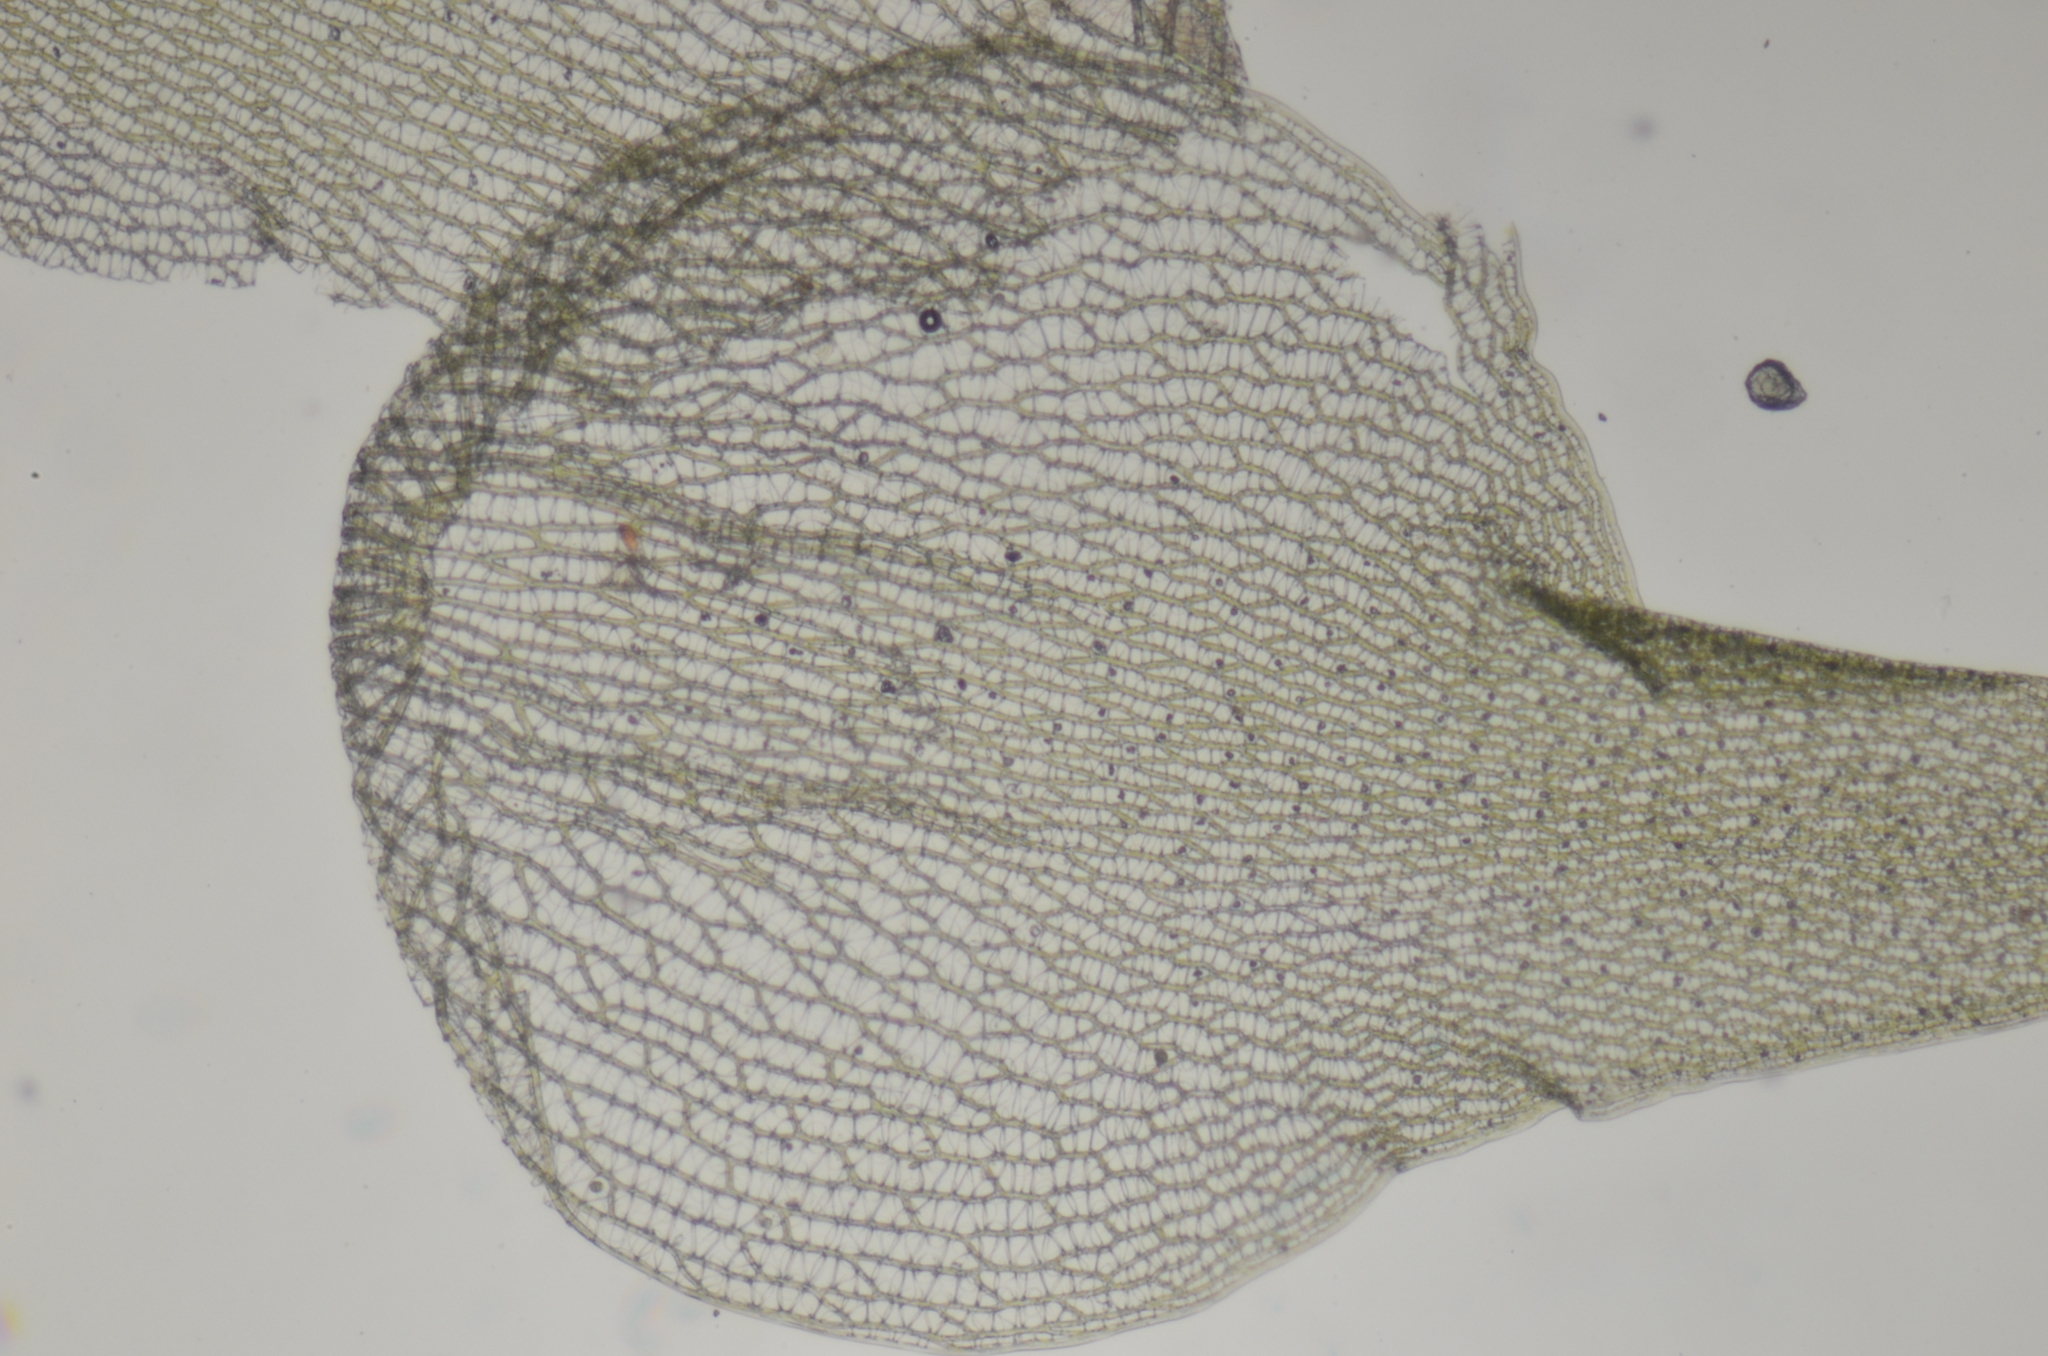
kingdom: Plantae
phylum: Bryophyta
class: Sphagnopsida
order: Sphagnales
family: Sphagnaceae
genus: Sphagnum
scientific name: Sphagnum squarrosum
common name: Shaggy peat moss
